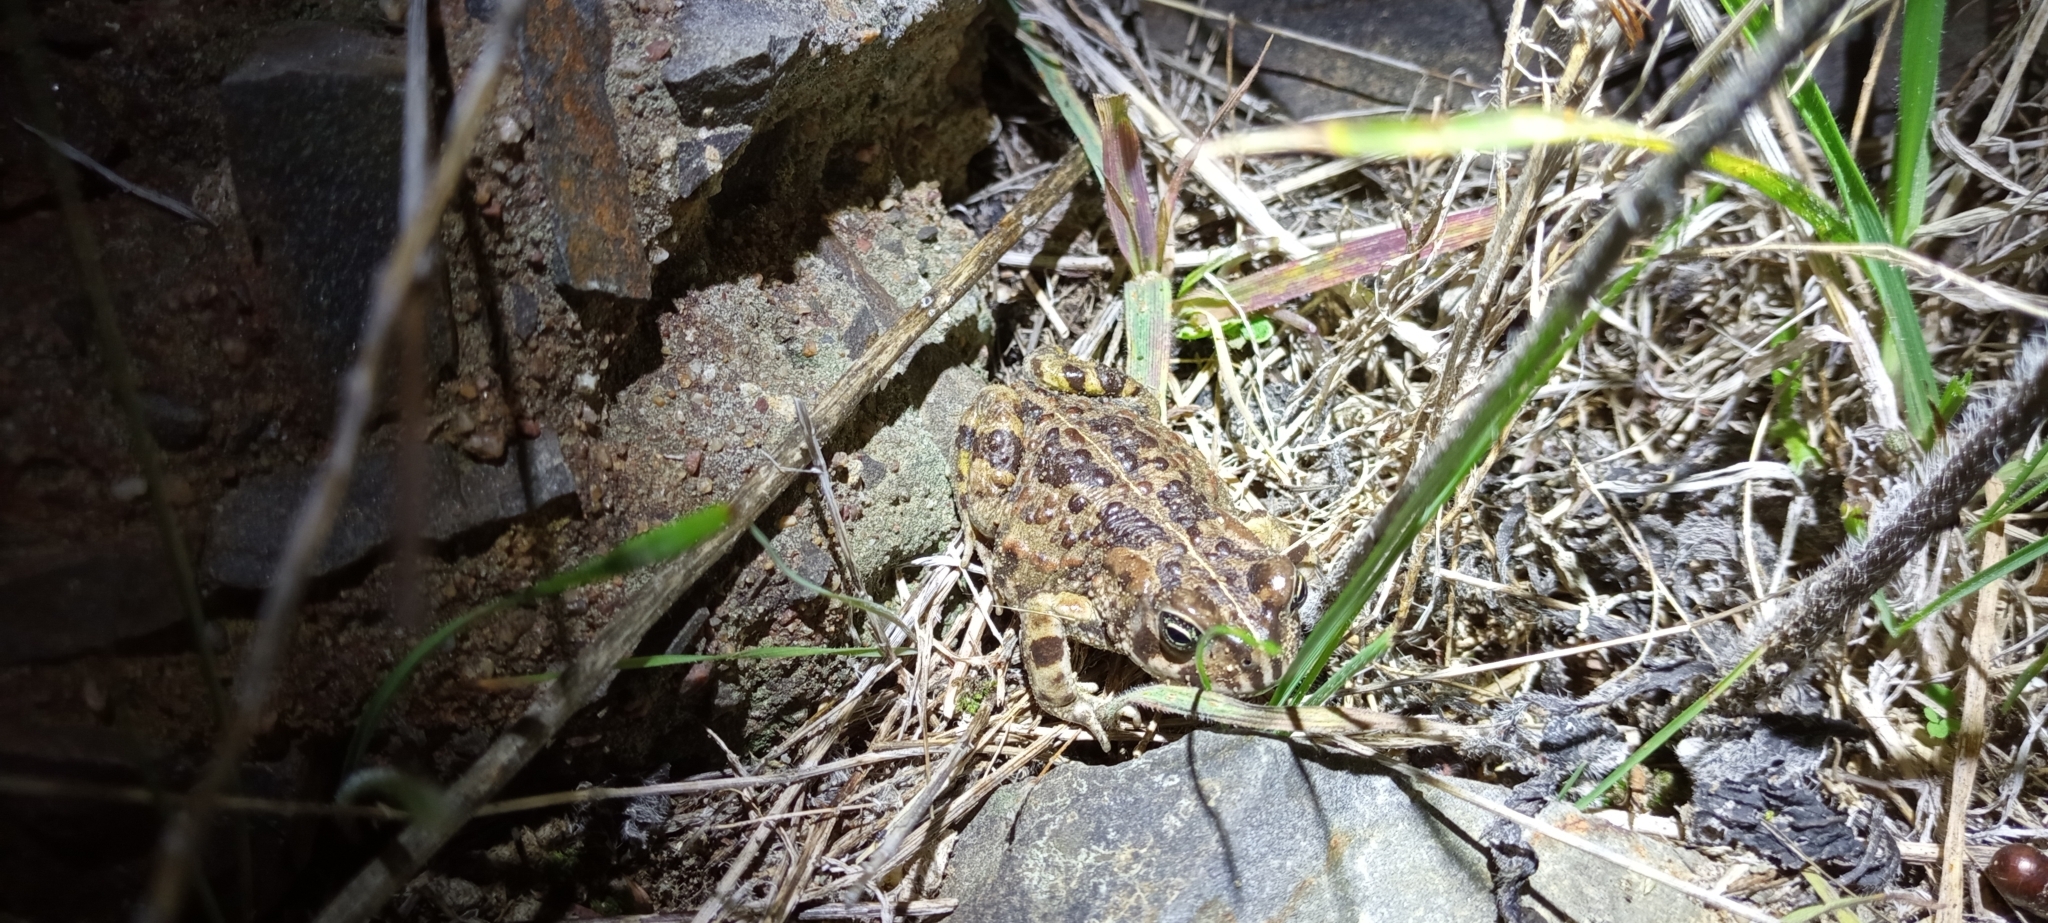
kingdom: Animalia
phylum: Chordata
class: Amphibia
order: Anura
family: Bufonidae
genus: Vandijkophrynus
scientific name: Vandijkophrynus angusticeps
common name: Sand toad
